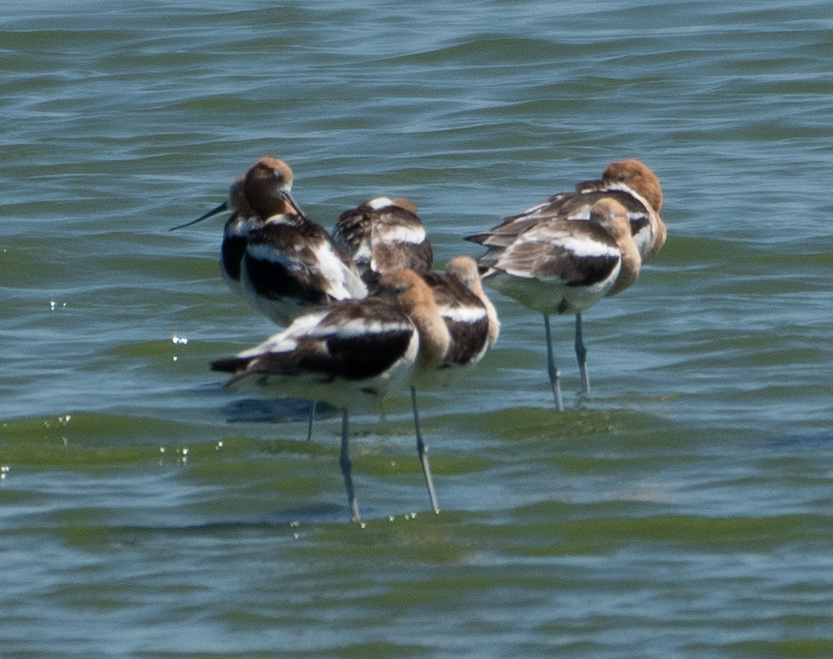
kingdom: Animalia
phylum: Chordata
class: Aves
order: Charadriiformes
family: Recurvirostridae
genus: Recurvirostra
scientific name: Recurvirostra americana
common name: American avocet
